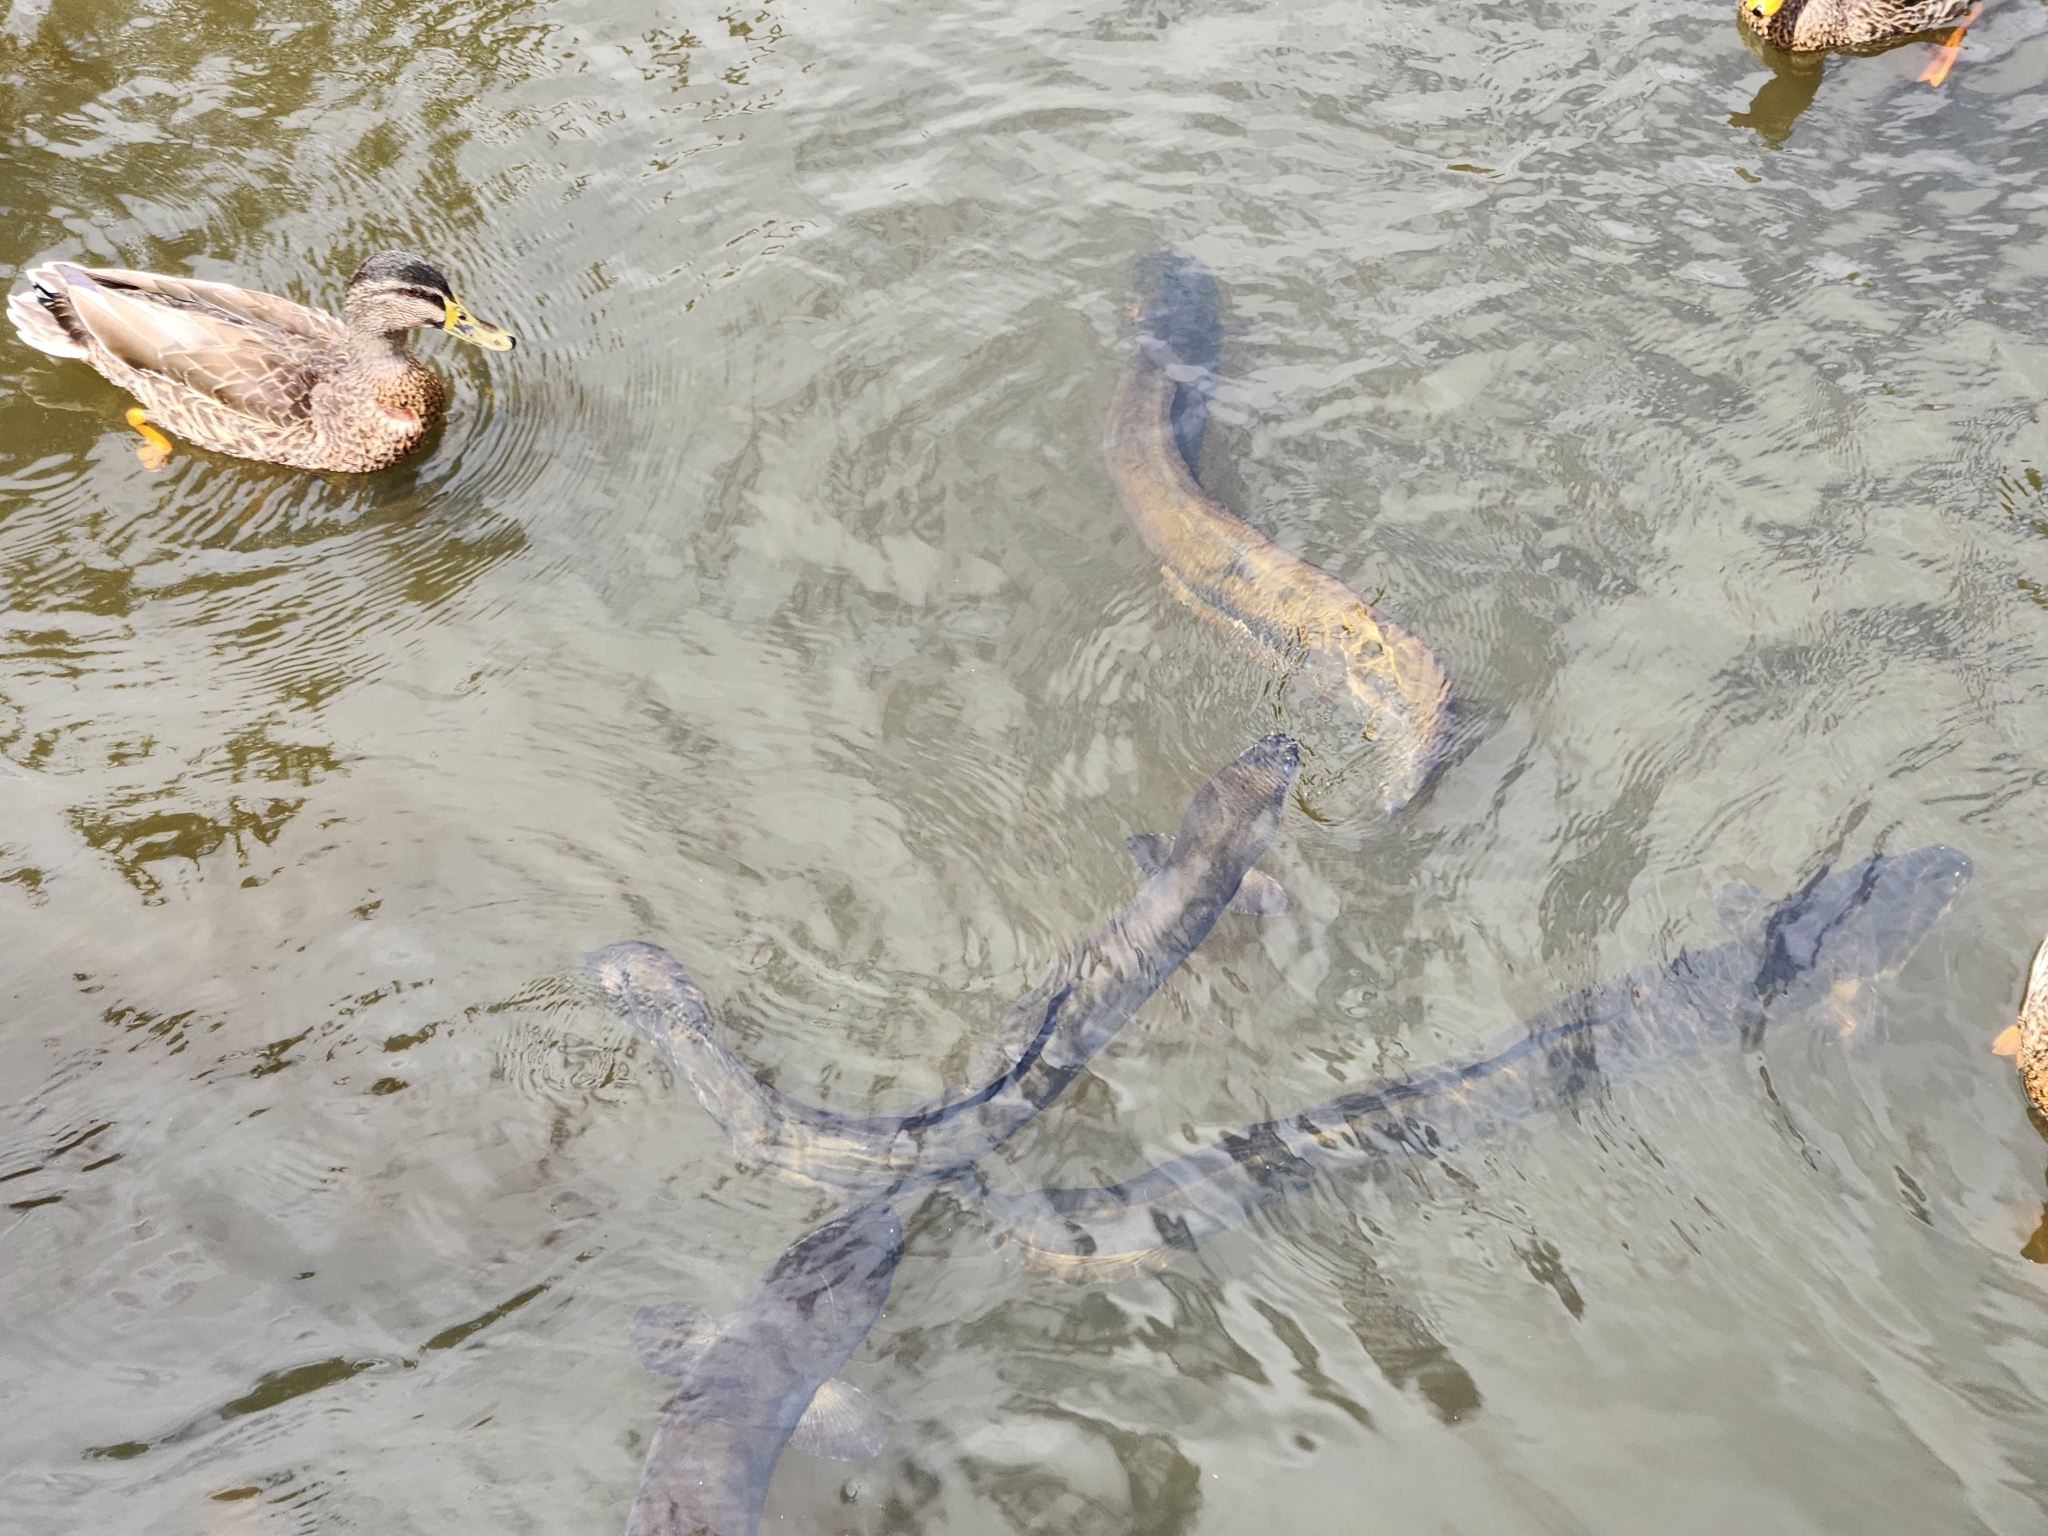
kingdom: Animalia
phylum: Chordata
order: Anguilliformes
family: Anguillidae
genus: Anguilla
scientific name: Anguilla dieffenbachii
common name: New zealand longfin eel
